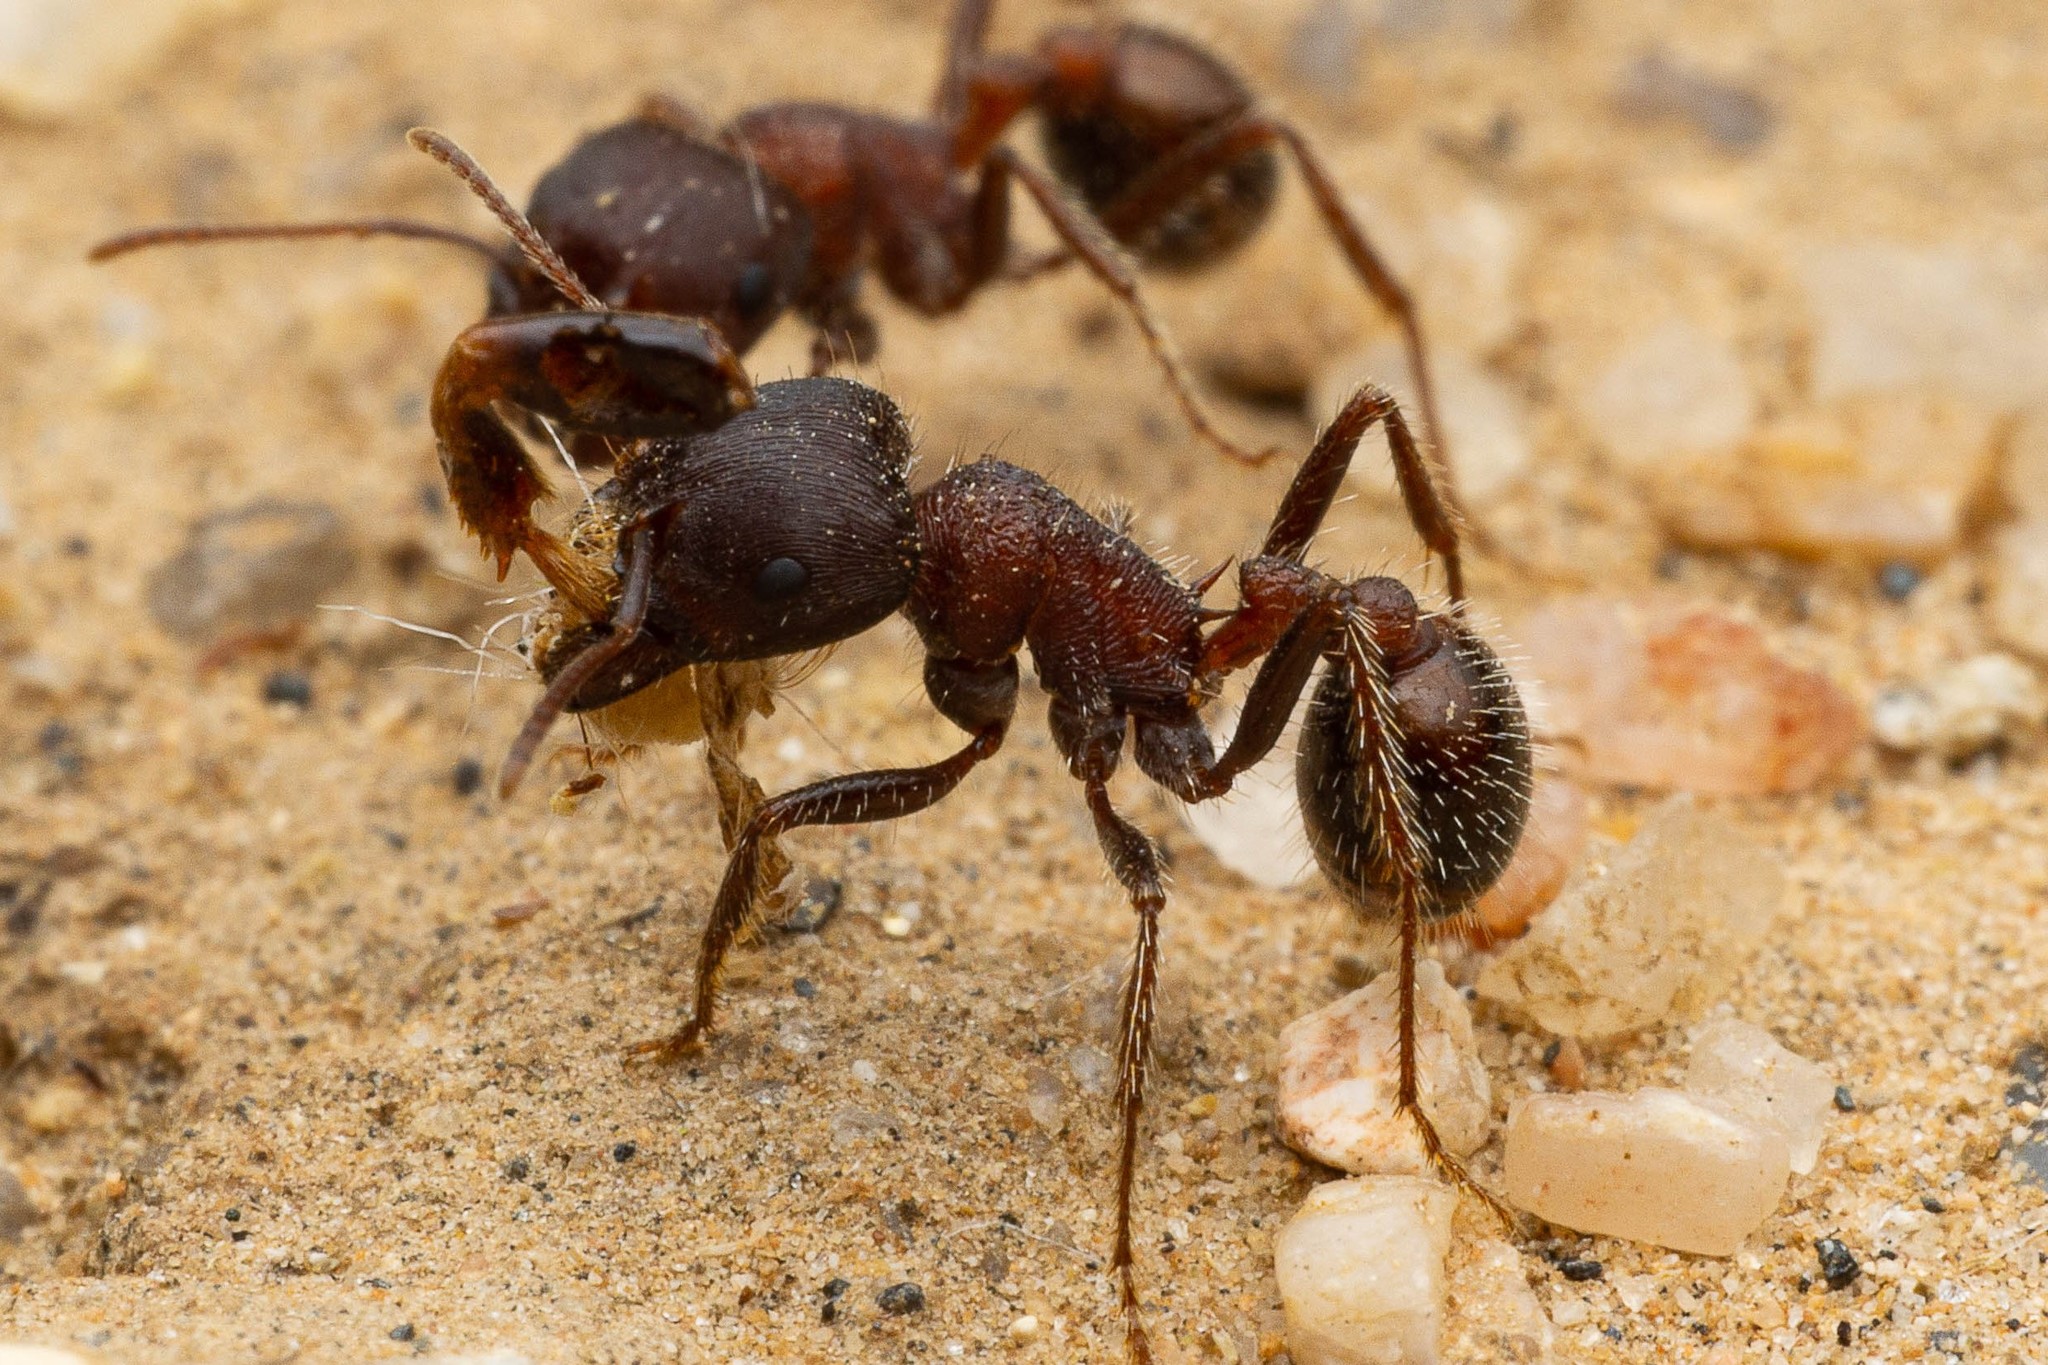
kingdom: Animalia
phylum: Arthropoda
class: Insecta
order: Hymenoptera
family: Formicidae
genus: Pogonomyrmex
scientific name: Pogonomyrmex rugosus
